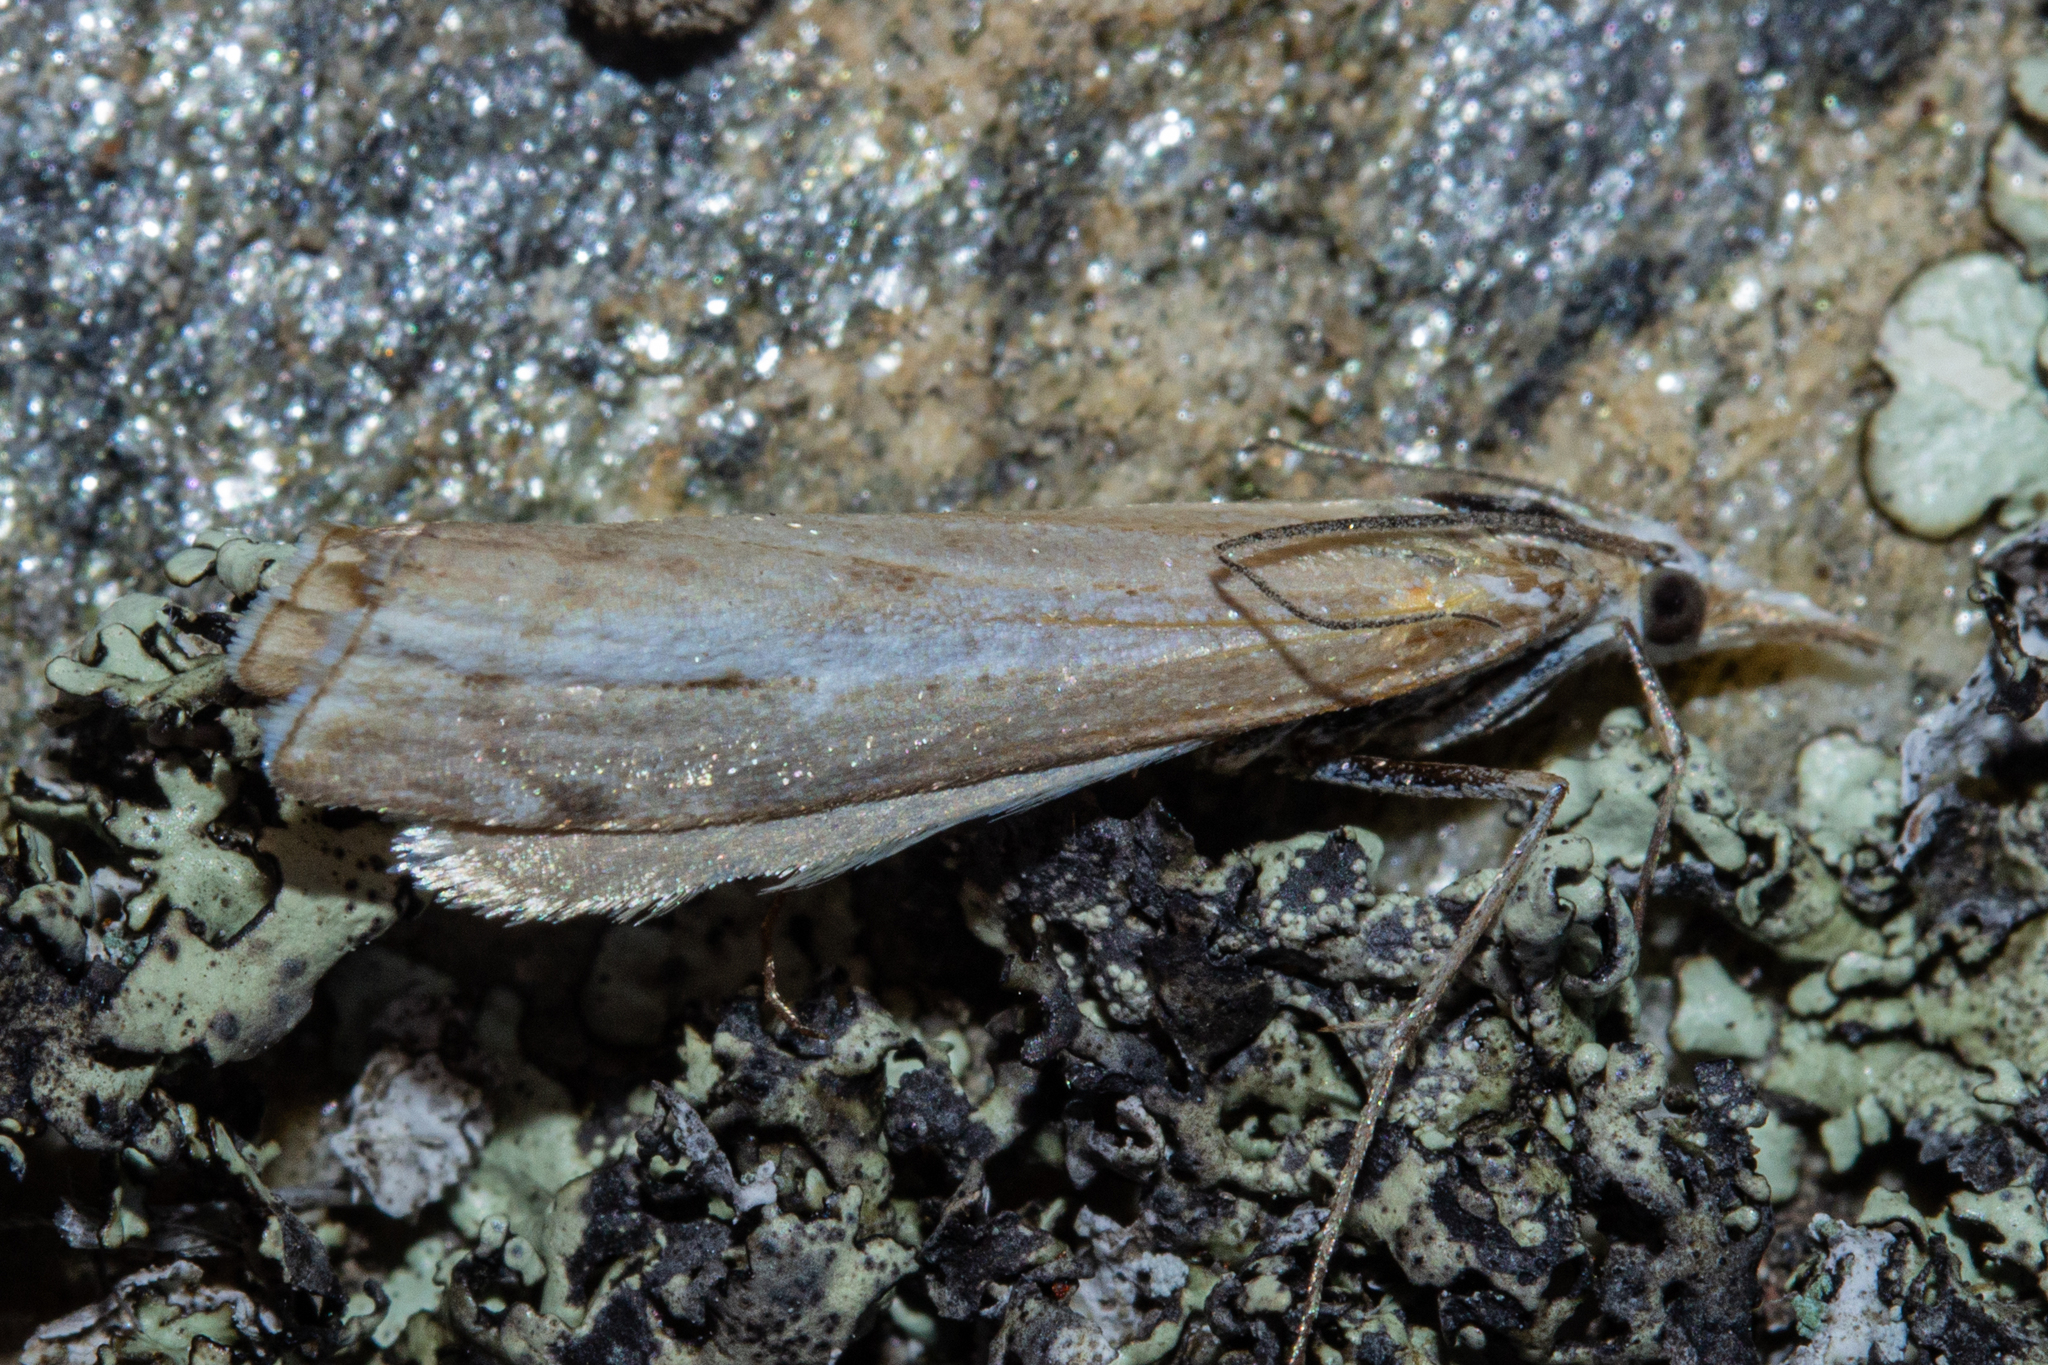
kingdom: Animalia
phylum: Arthropoda
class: Insecta
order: Lepidoptera
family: Crambidae
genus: Orocrambus
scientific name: Orocrambus vittellus
